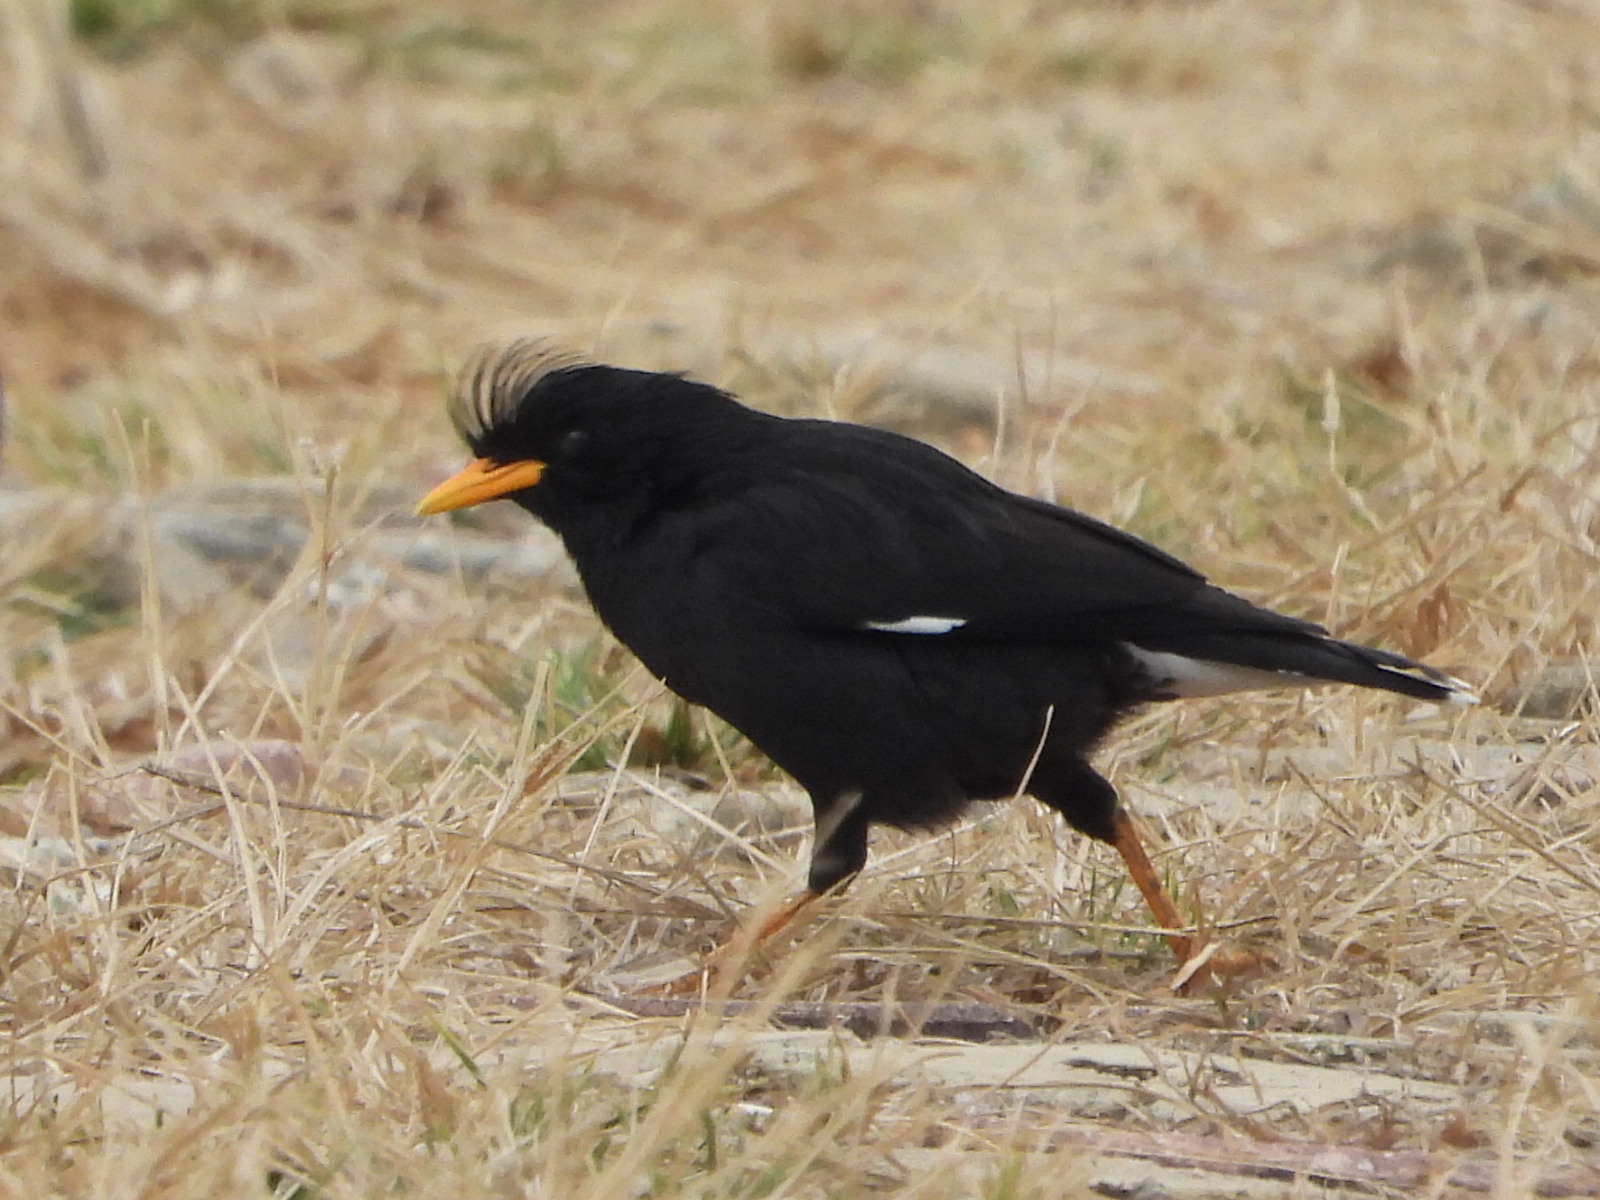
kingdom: Animalia
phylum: Chordata
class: Aves
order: Passeriformes
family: Sturnidae
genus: Acridotheres
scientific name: Acridotheres grandis
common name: Great myna
